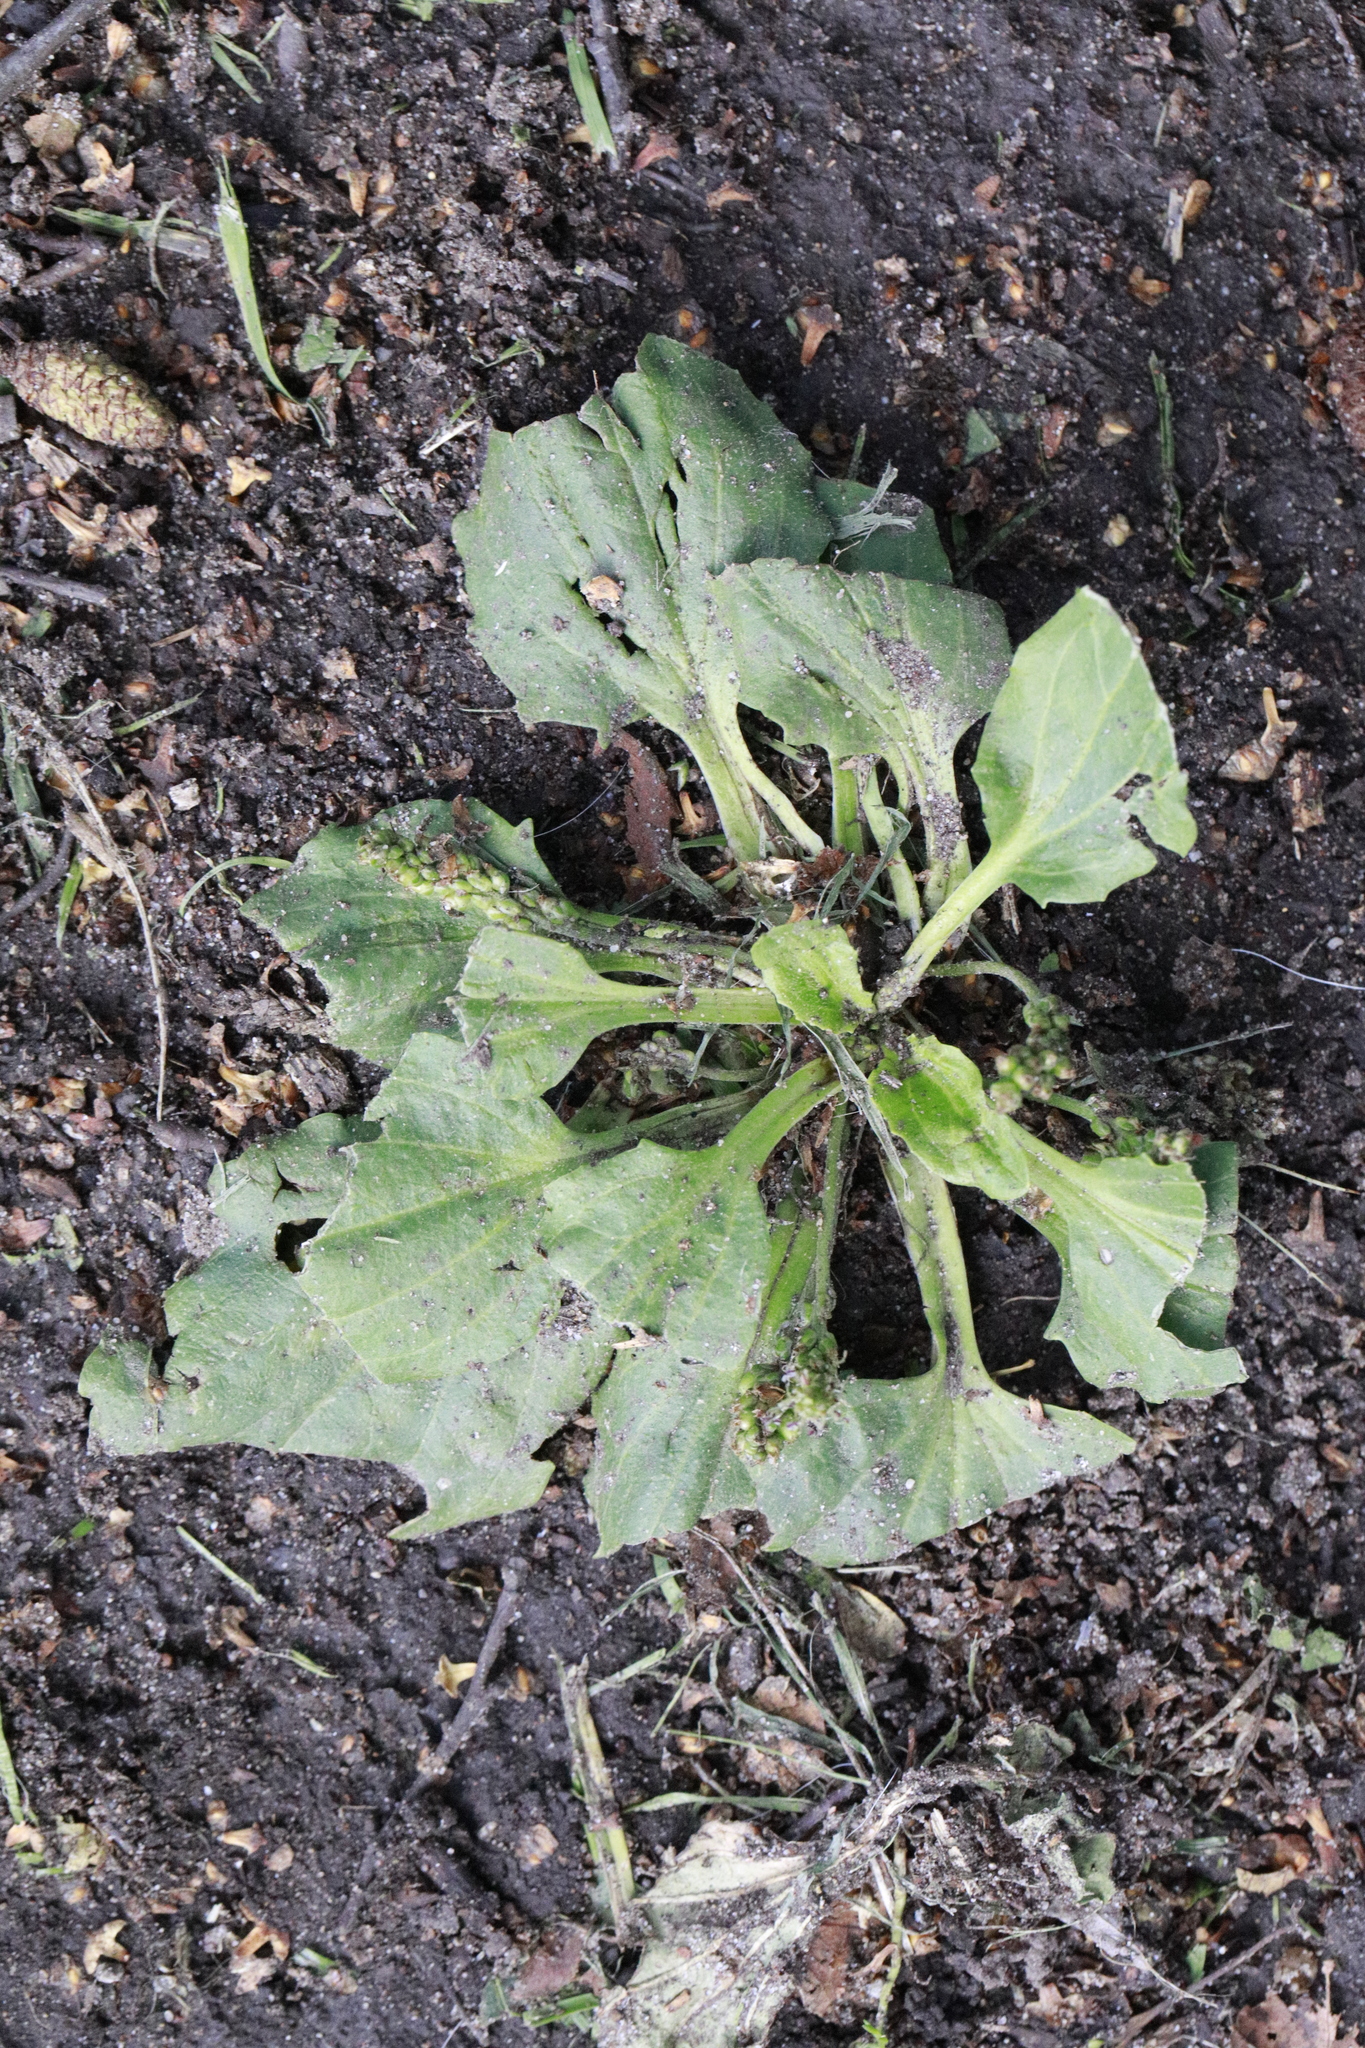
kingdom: Plantae
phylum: Tracheophyta
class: Magnoliopsida
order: Lamiales
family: Plantaginaceae
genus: Plantago
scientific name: Plantago major
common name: Common plantain
